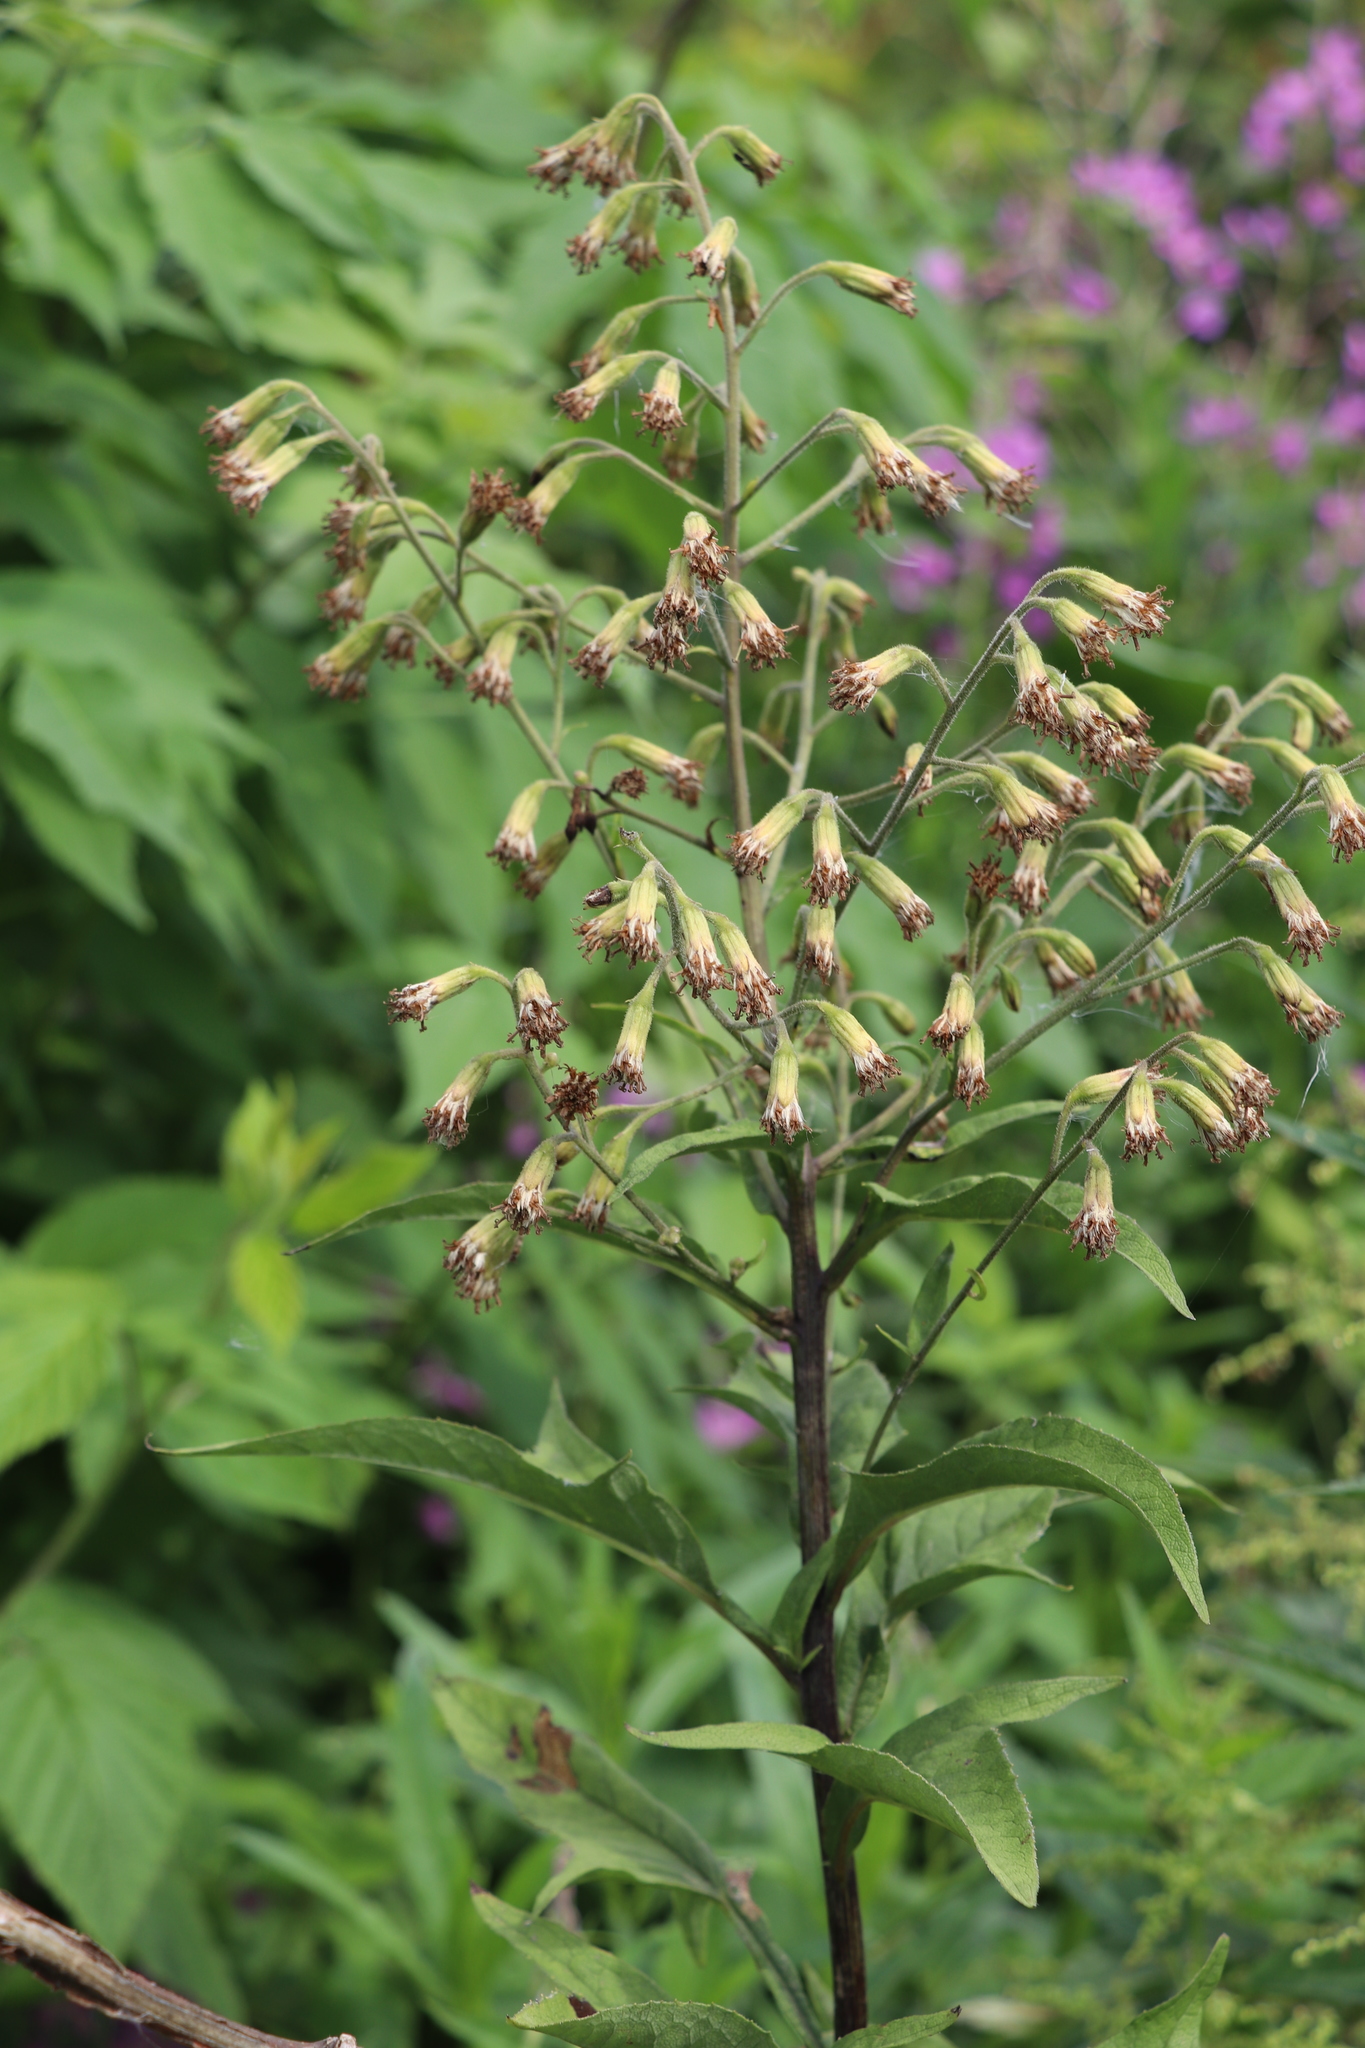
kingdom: Plantae
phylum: Tracheophyta
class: Magnoliopsida
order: Asterales
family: Asteraceae
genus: Parasenecio
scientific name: Parasenecio hastatus
